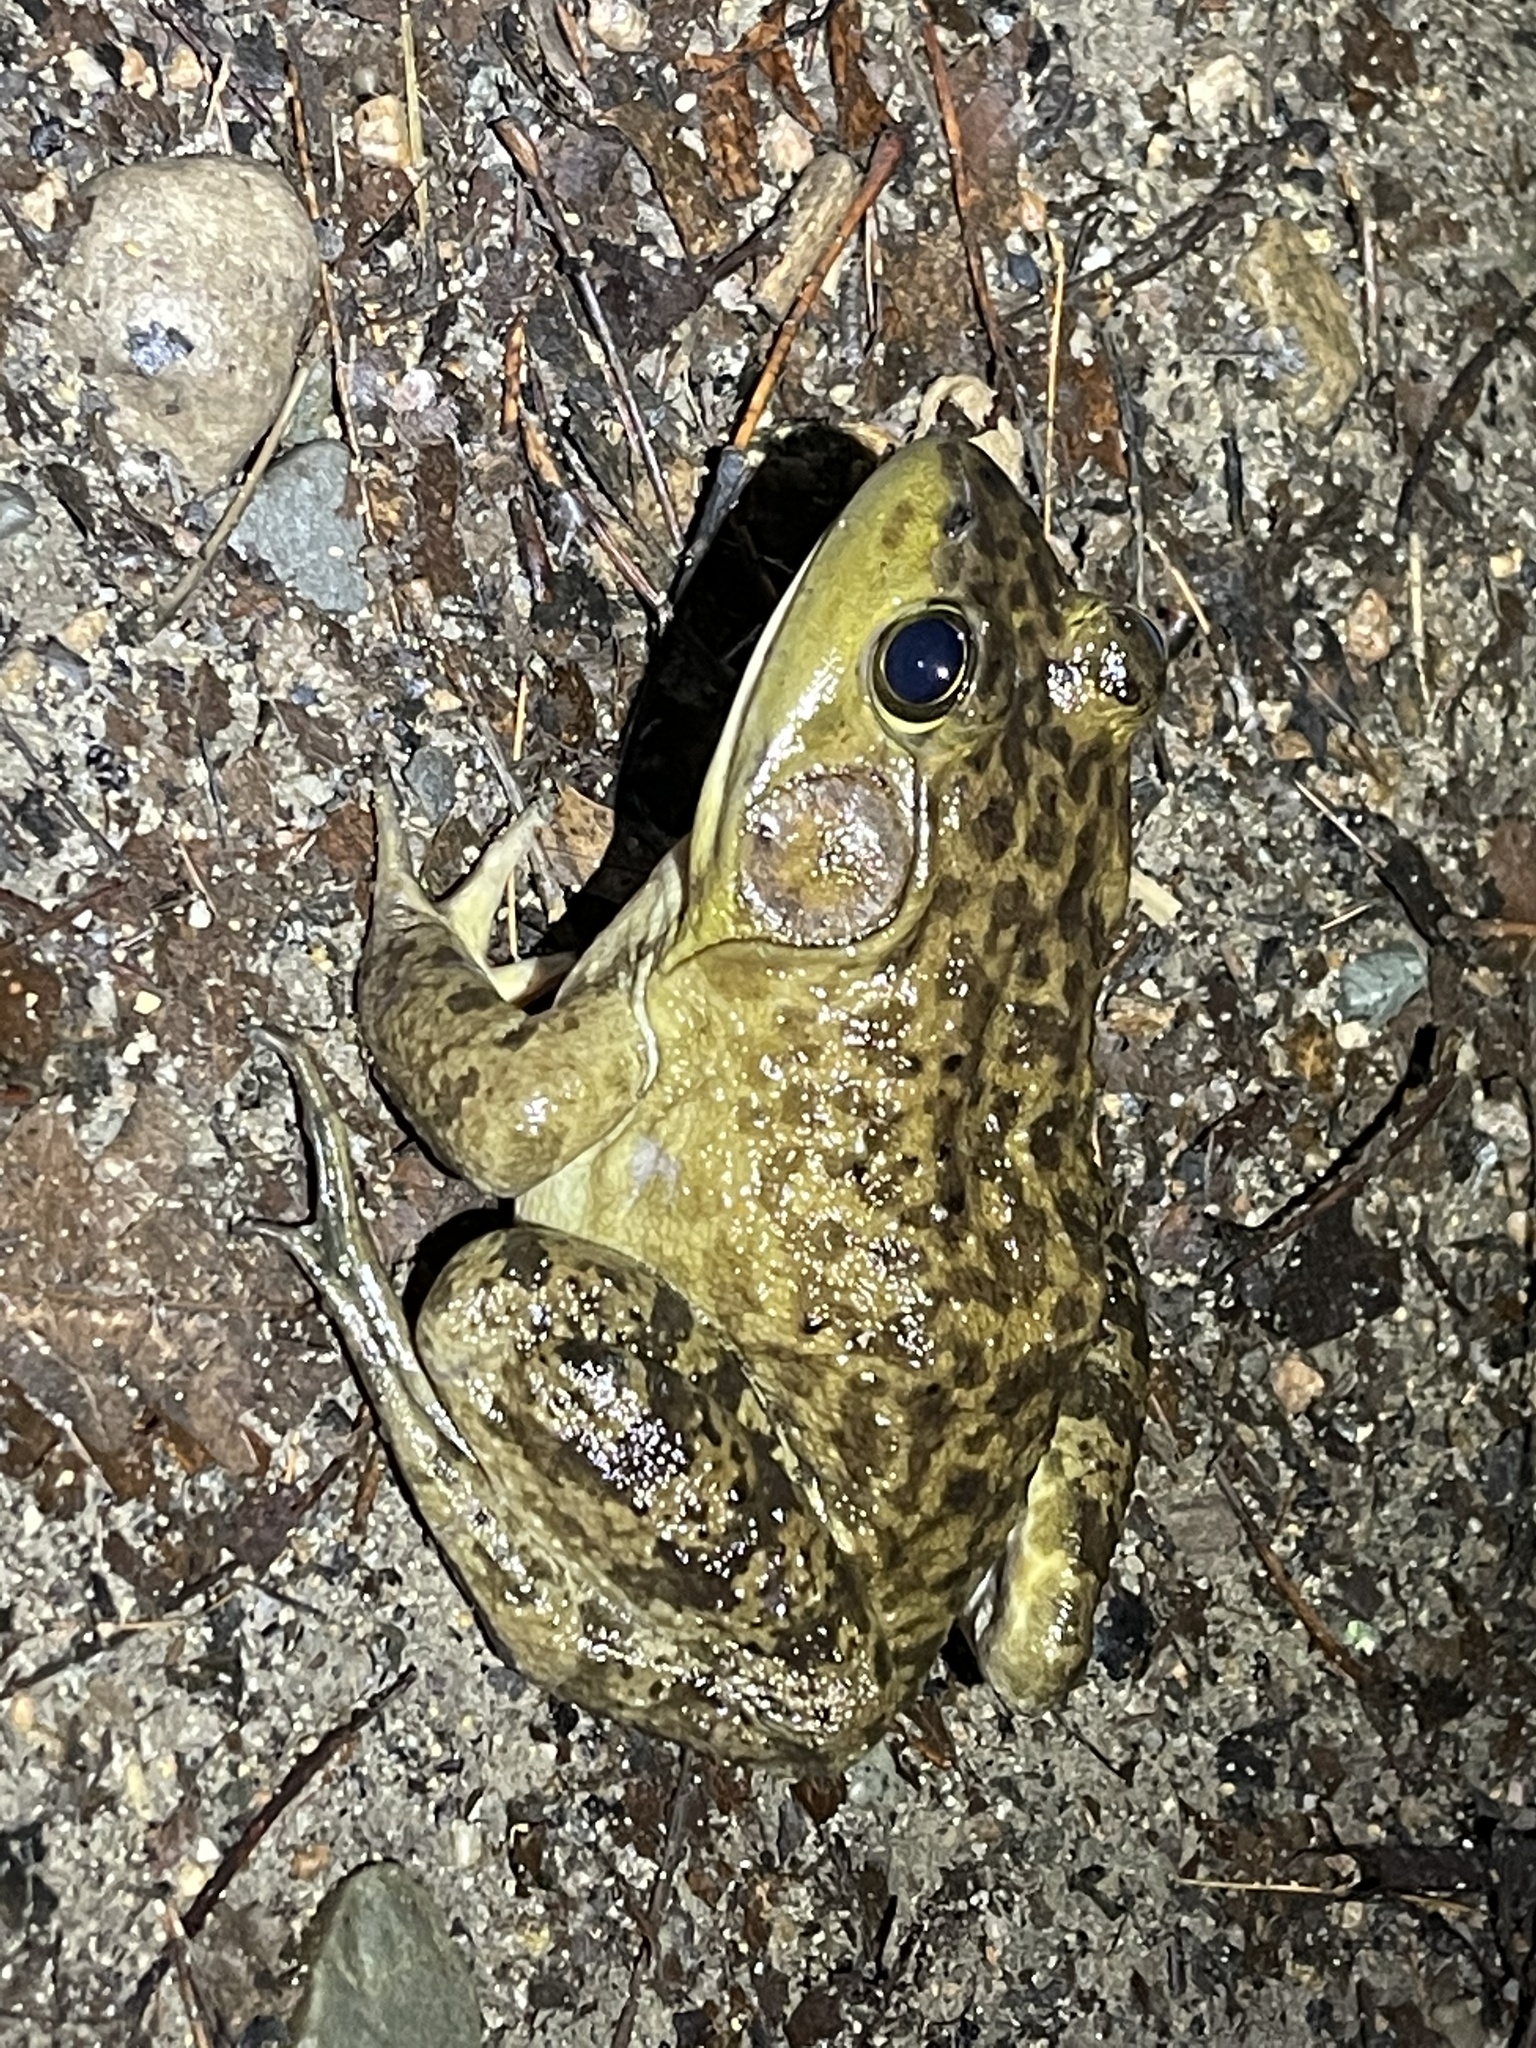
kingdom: Animalia
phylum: Chordata
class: Amphibia
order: Anura
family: Ranidae
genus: Lithobates
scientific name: Lithobates catesbeianus
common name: American bullfrog
